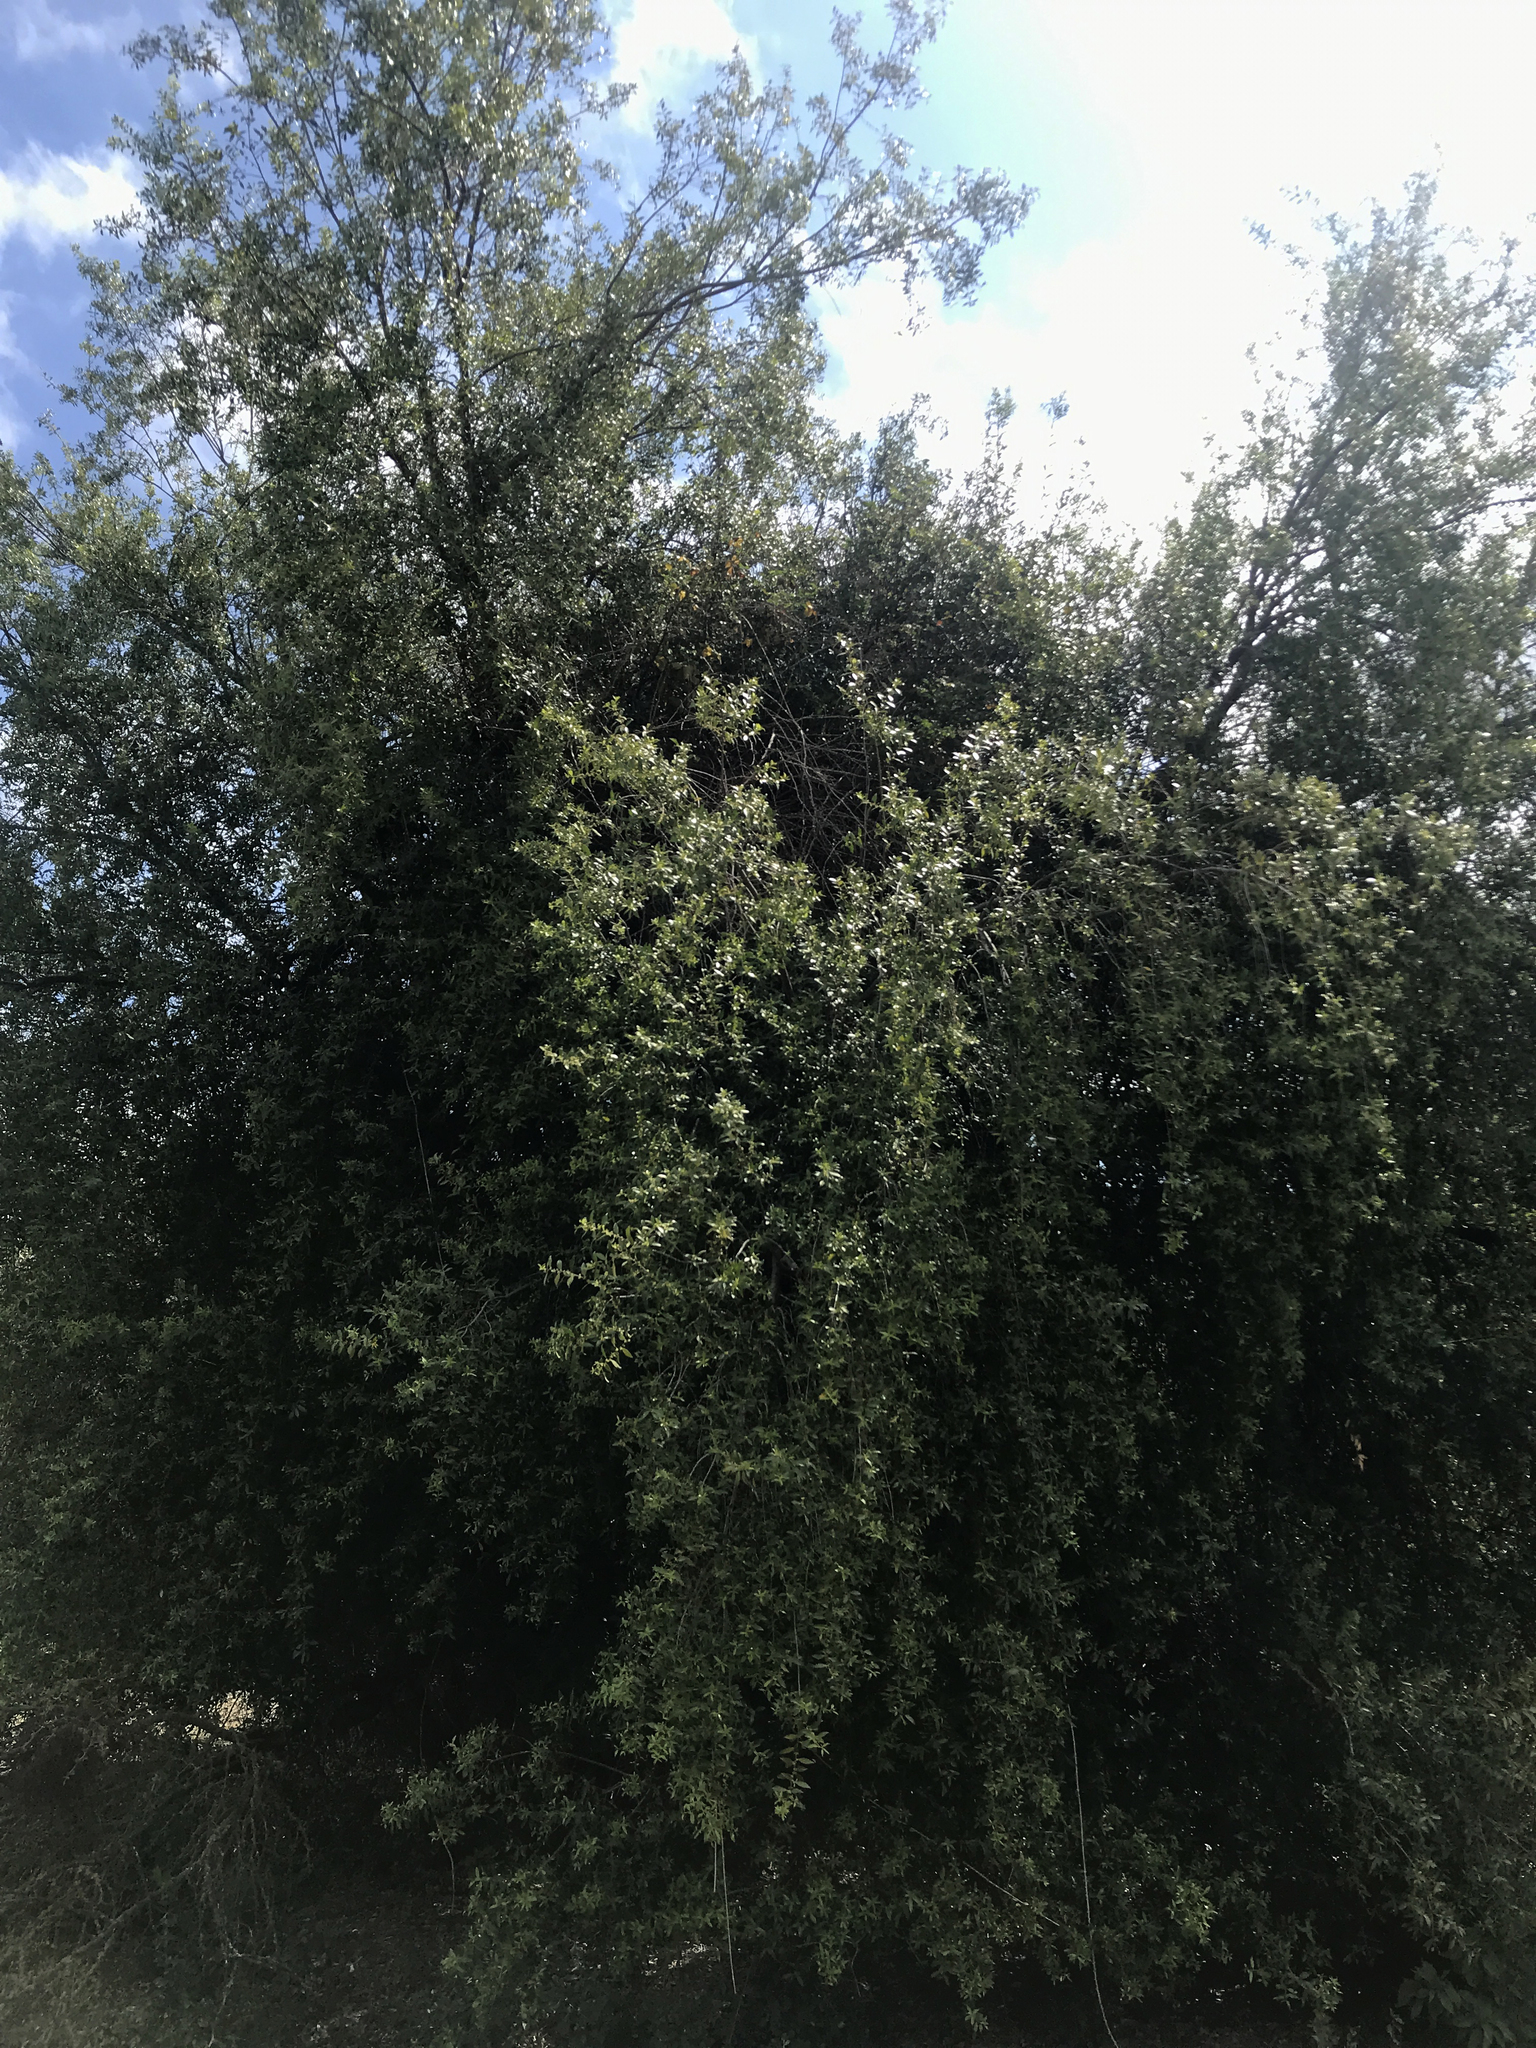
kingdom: Plantae
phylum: Tracheophyta
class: Magnoliopsida
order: Celastrales
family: Celastraceae
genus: Maytenus
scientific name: Maytenus boaria
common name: Mayten
